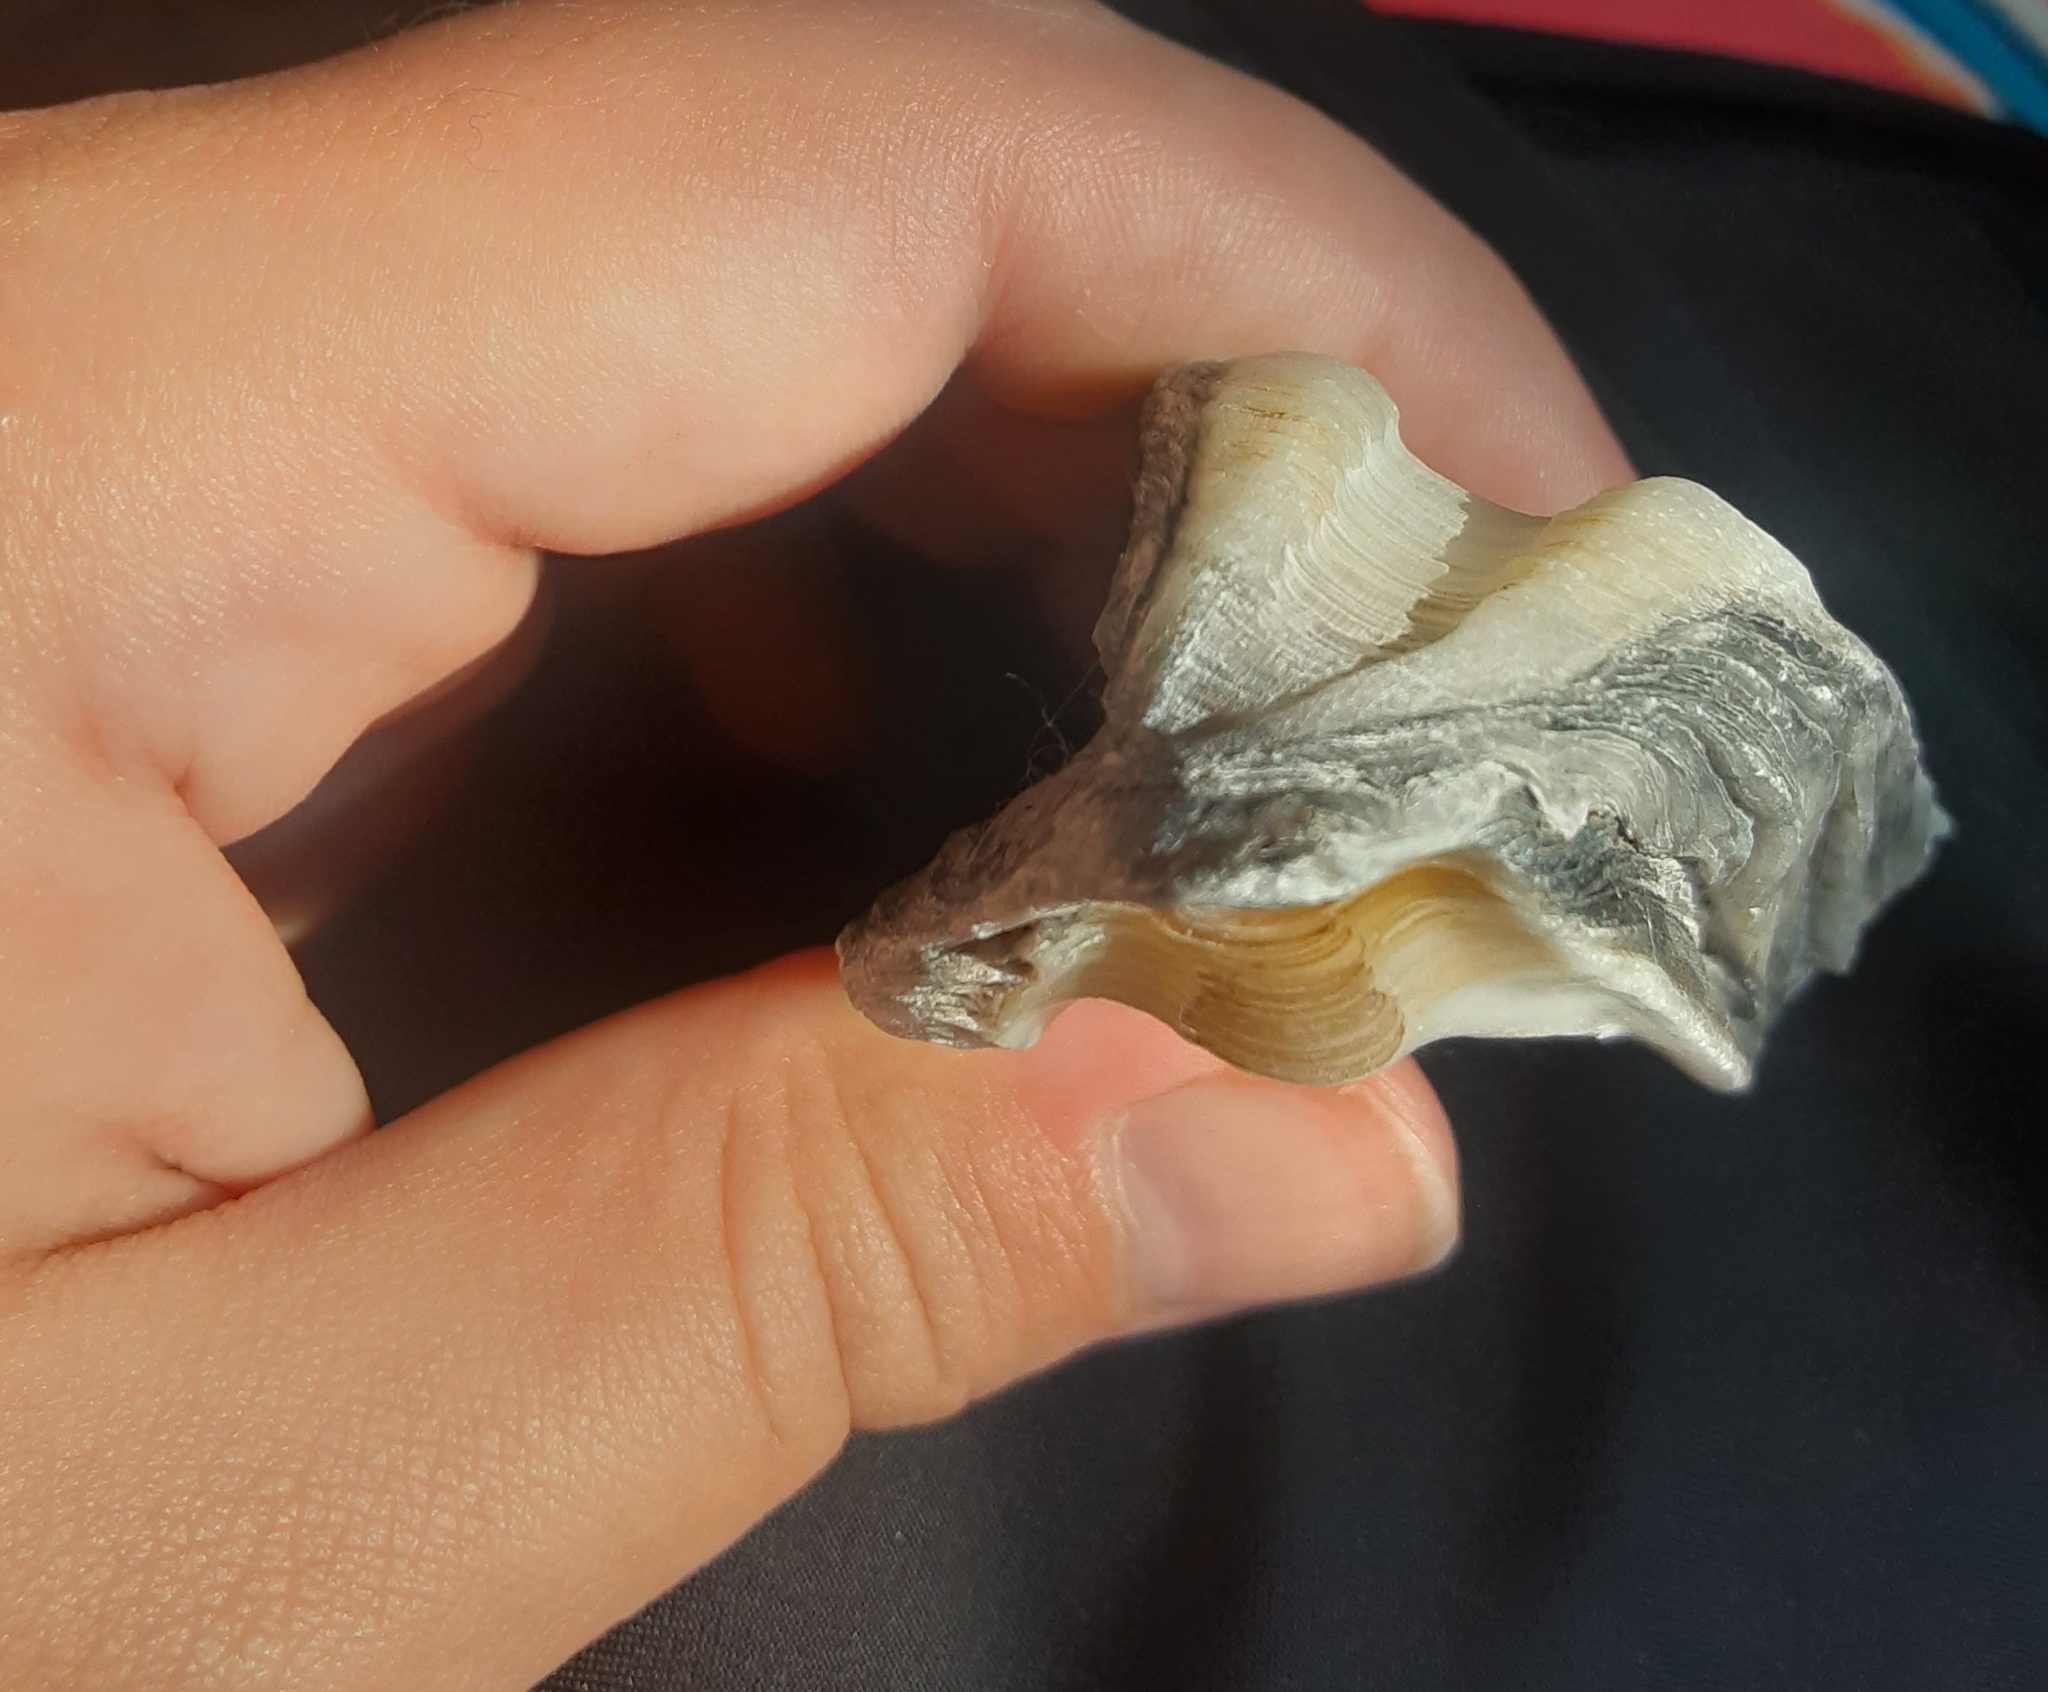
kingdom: Animalia
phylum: Mollusca
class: Bivalvia
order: Ostreida
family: Ostreidae
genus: Crassostrea
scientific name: Crassostrea virginica
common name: American oyster
